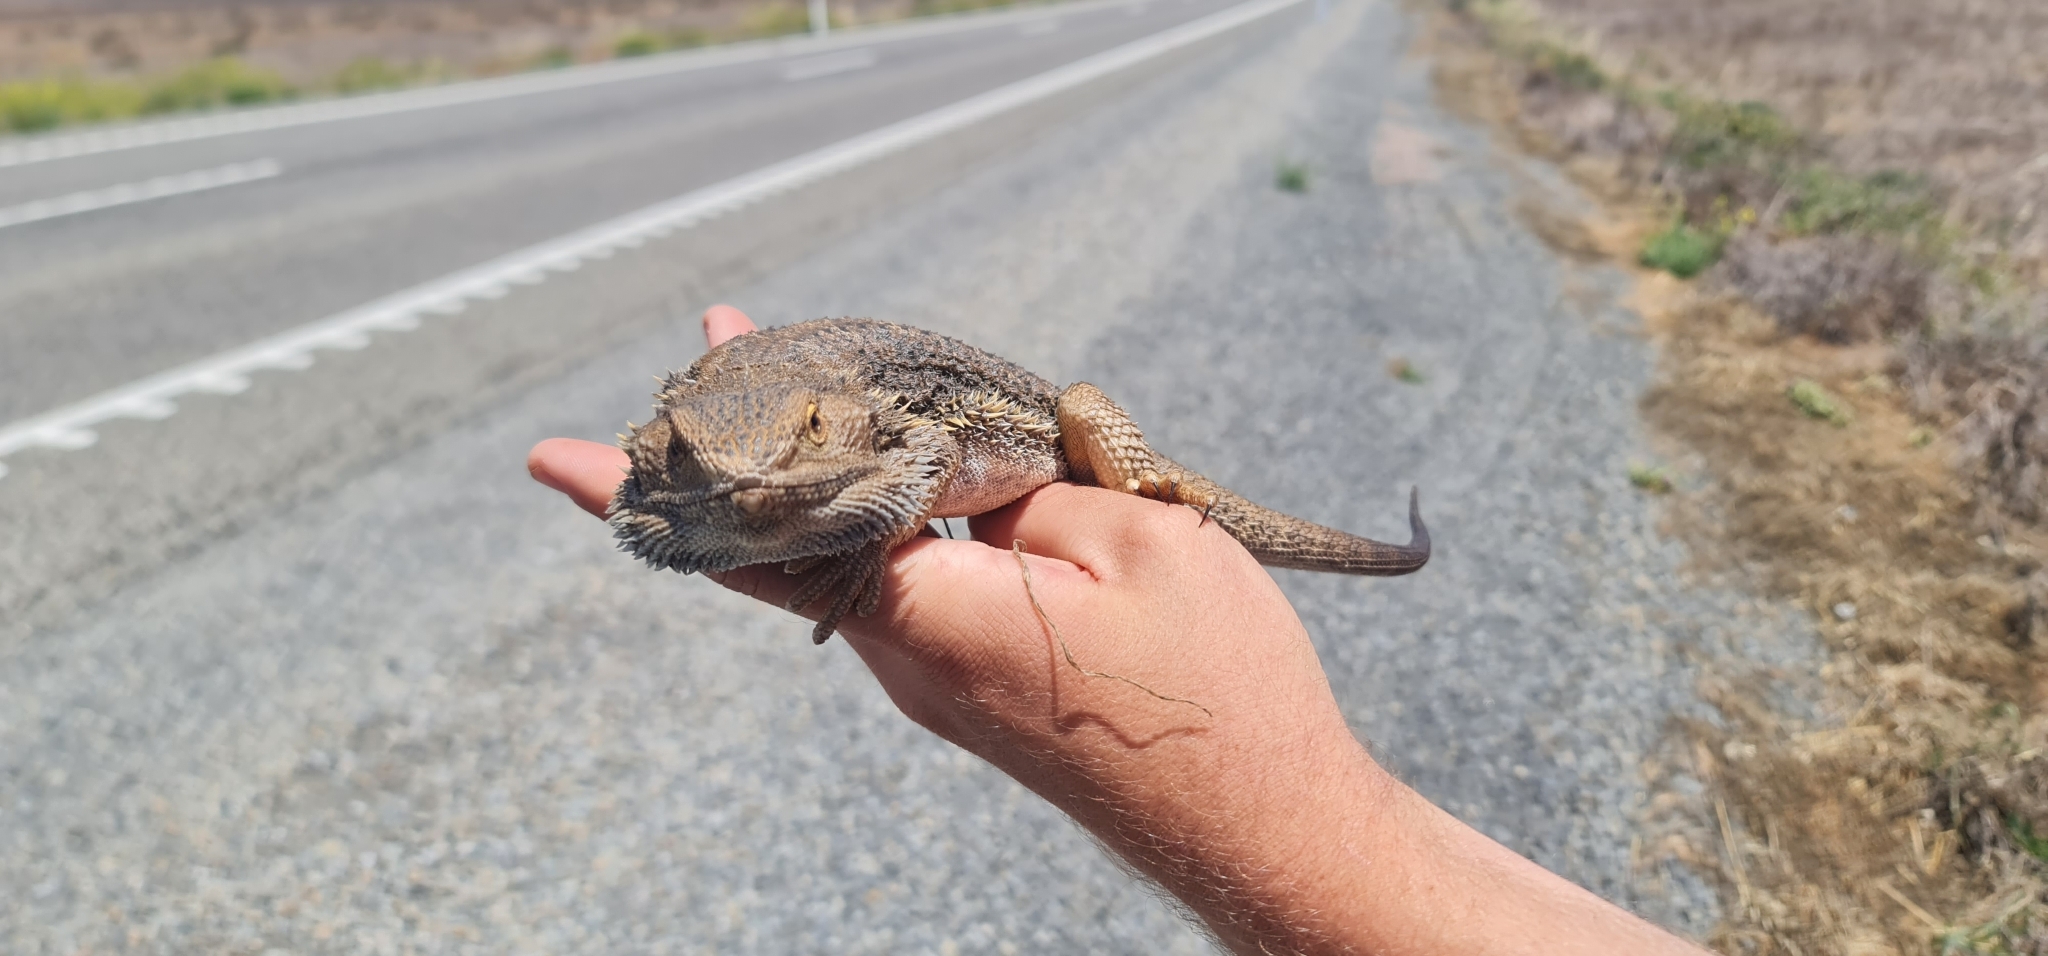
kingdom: Animalia
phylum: Chordata
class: Squamata
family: Agamidae
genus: Pogona
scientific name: Pogona vitticeps
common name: Central bearded dragon
